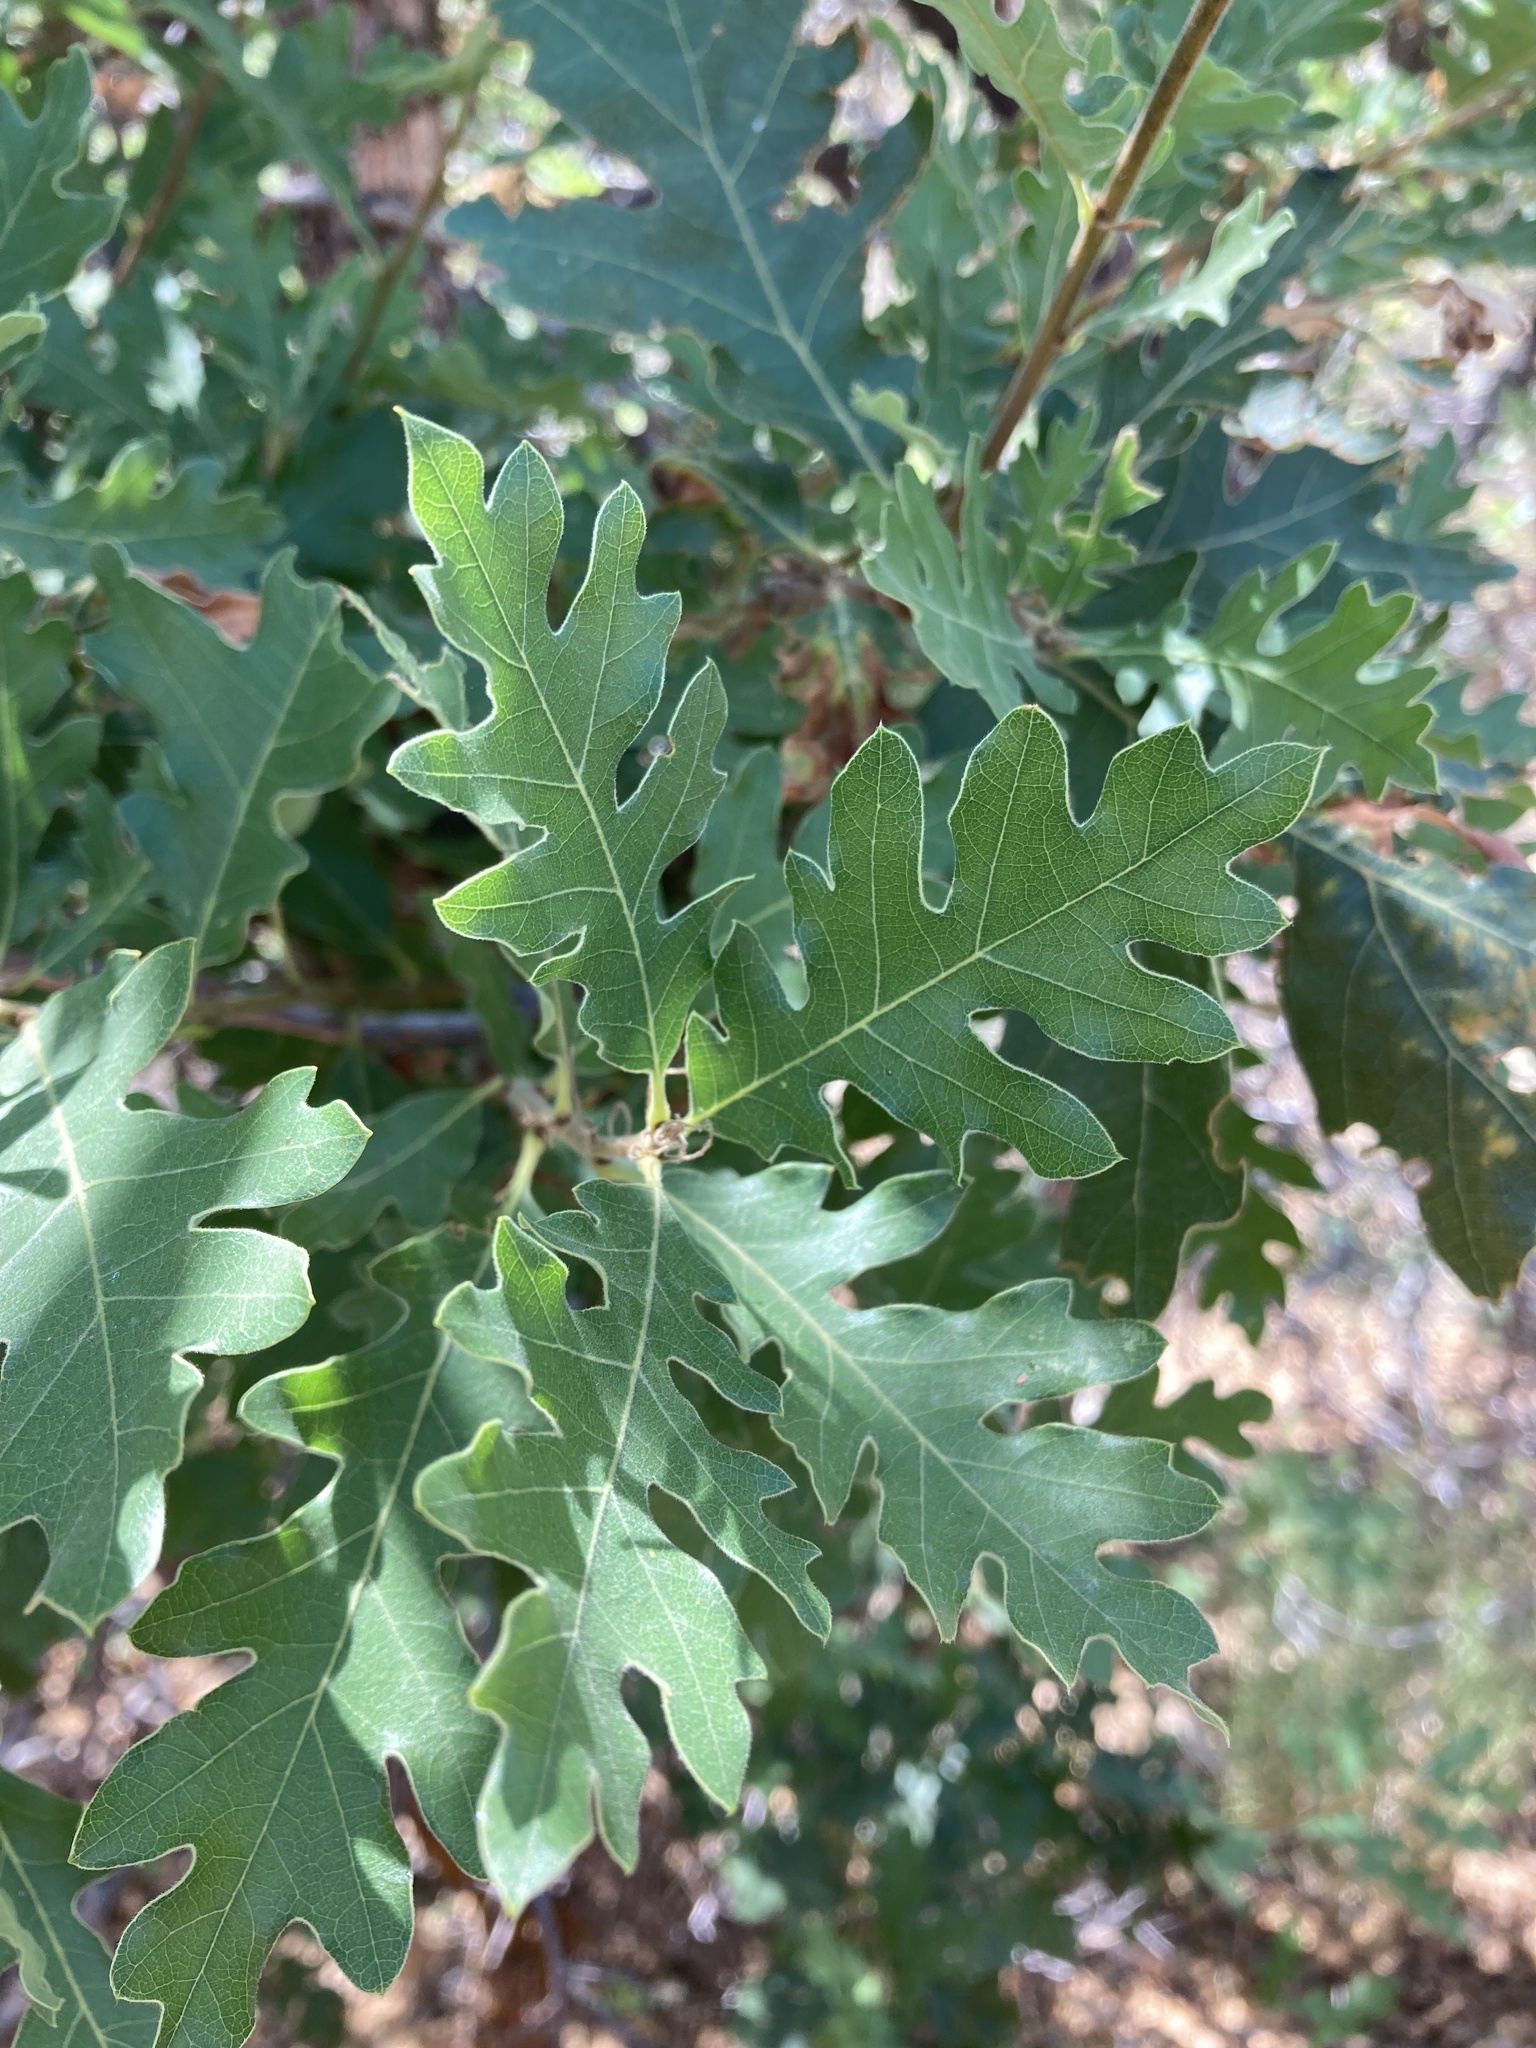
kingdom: Plantae
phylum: Tracheophyta
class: Magnoliopsida
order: Fagales
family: Fagaceae
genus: Quercus
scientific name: Quercus gambelii
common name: Gambel oak
